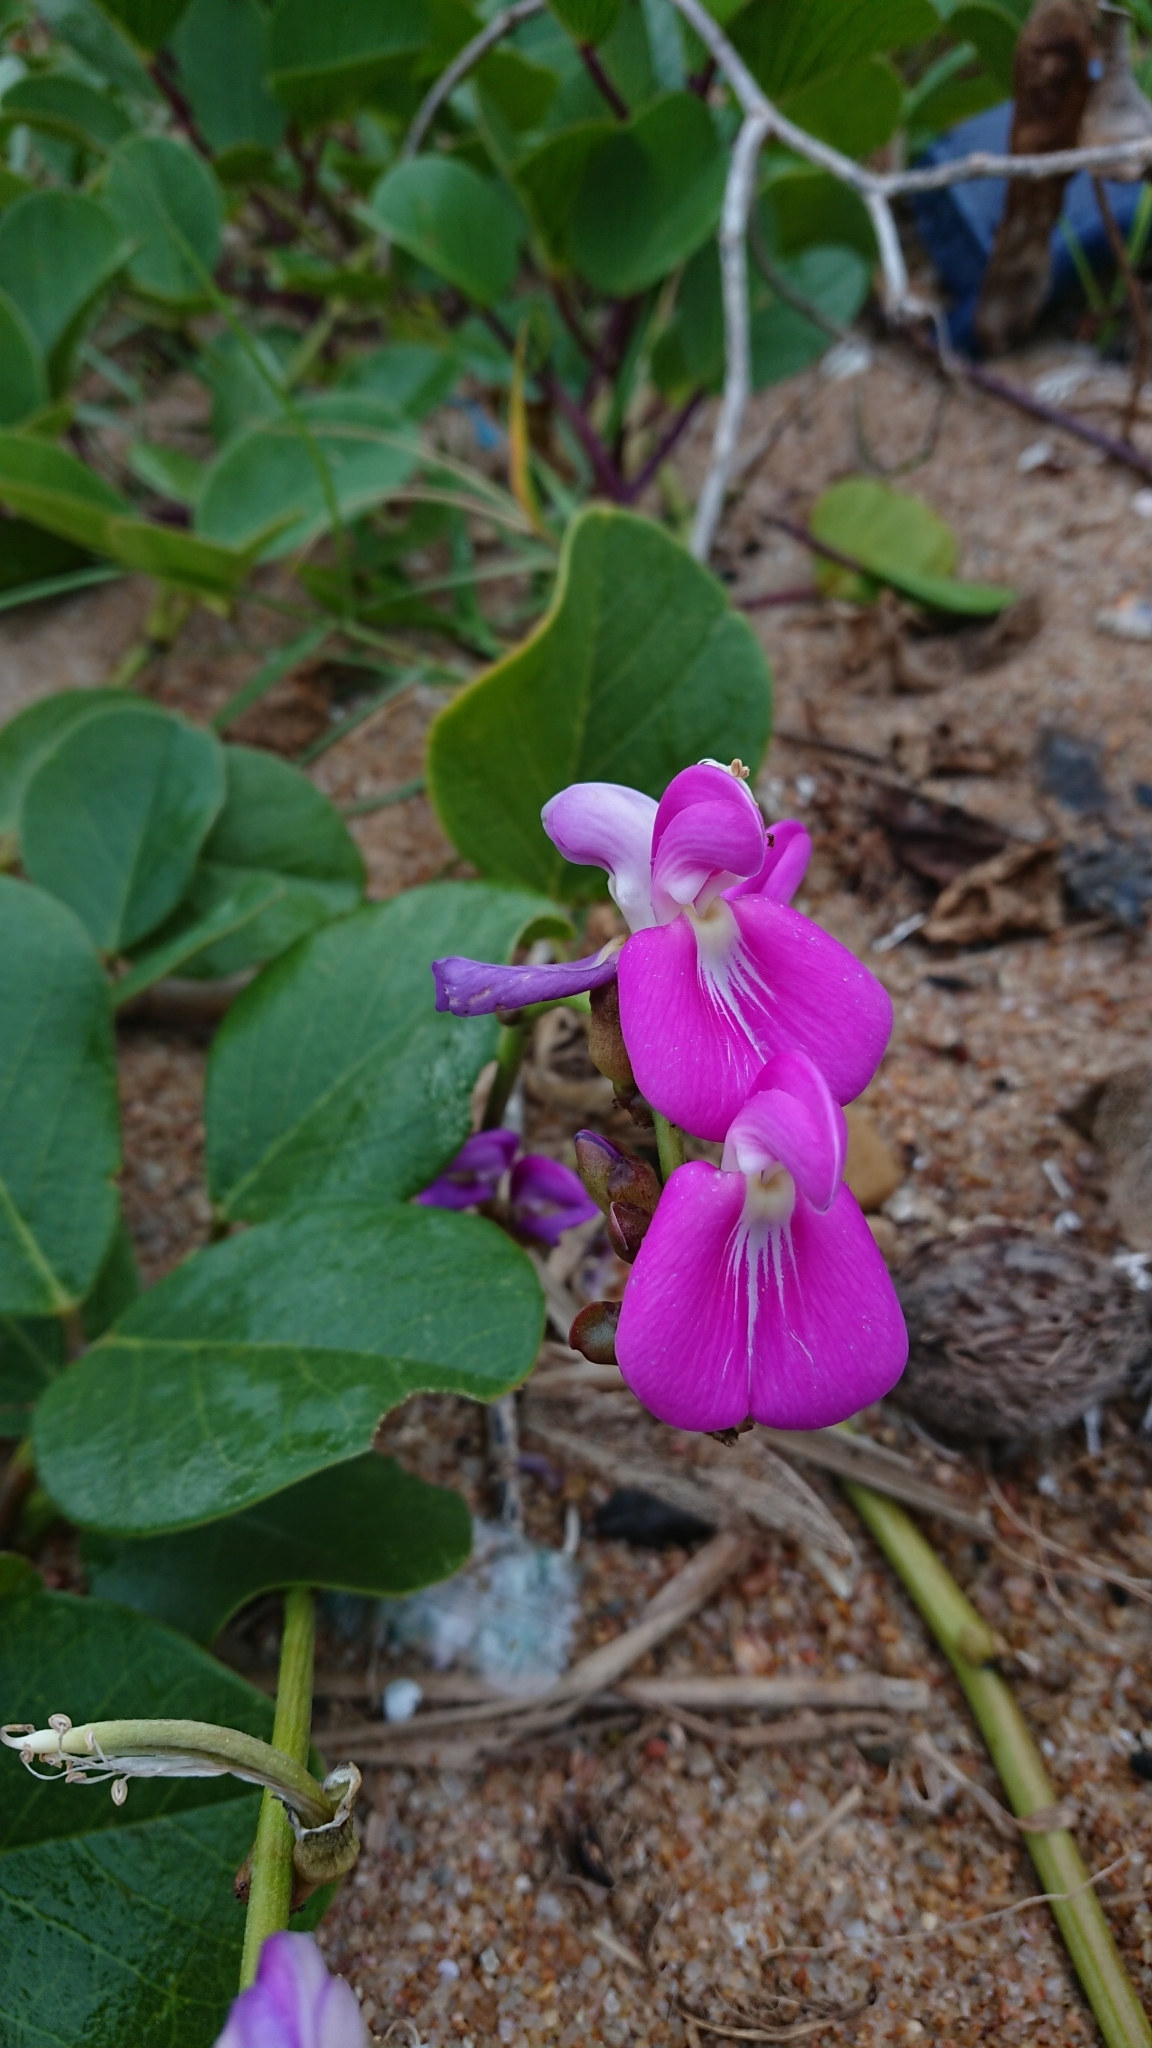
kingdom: Plantae
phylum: Tracheophyta
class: Magnoliopsida
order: Fabales
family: Fabaceae
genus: Canavalia
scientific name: Canavalia rosea
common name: Beach-bean
